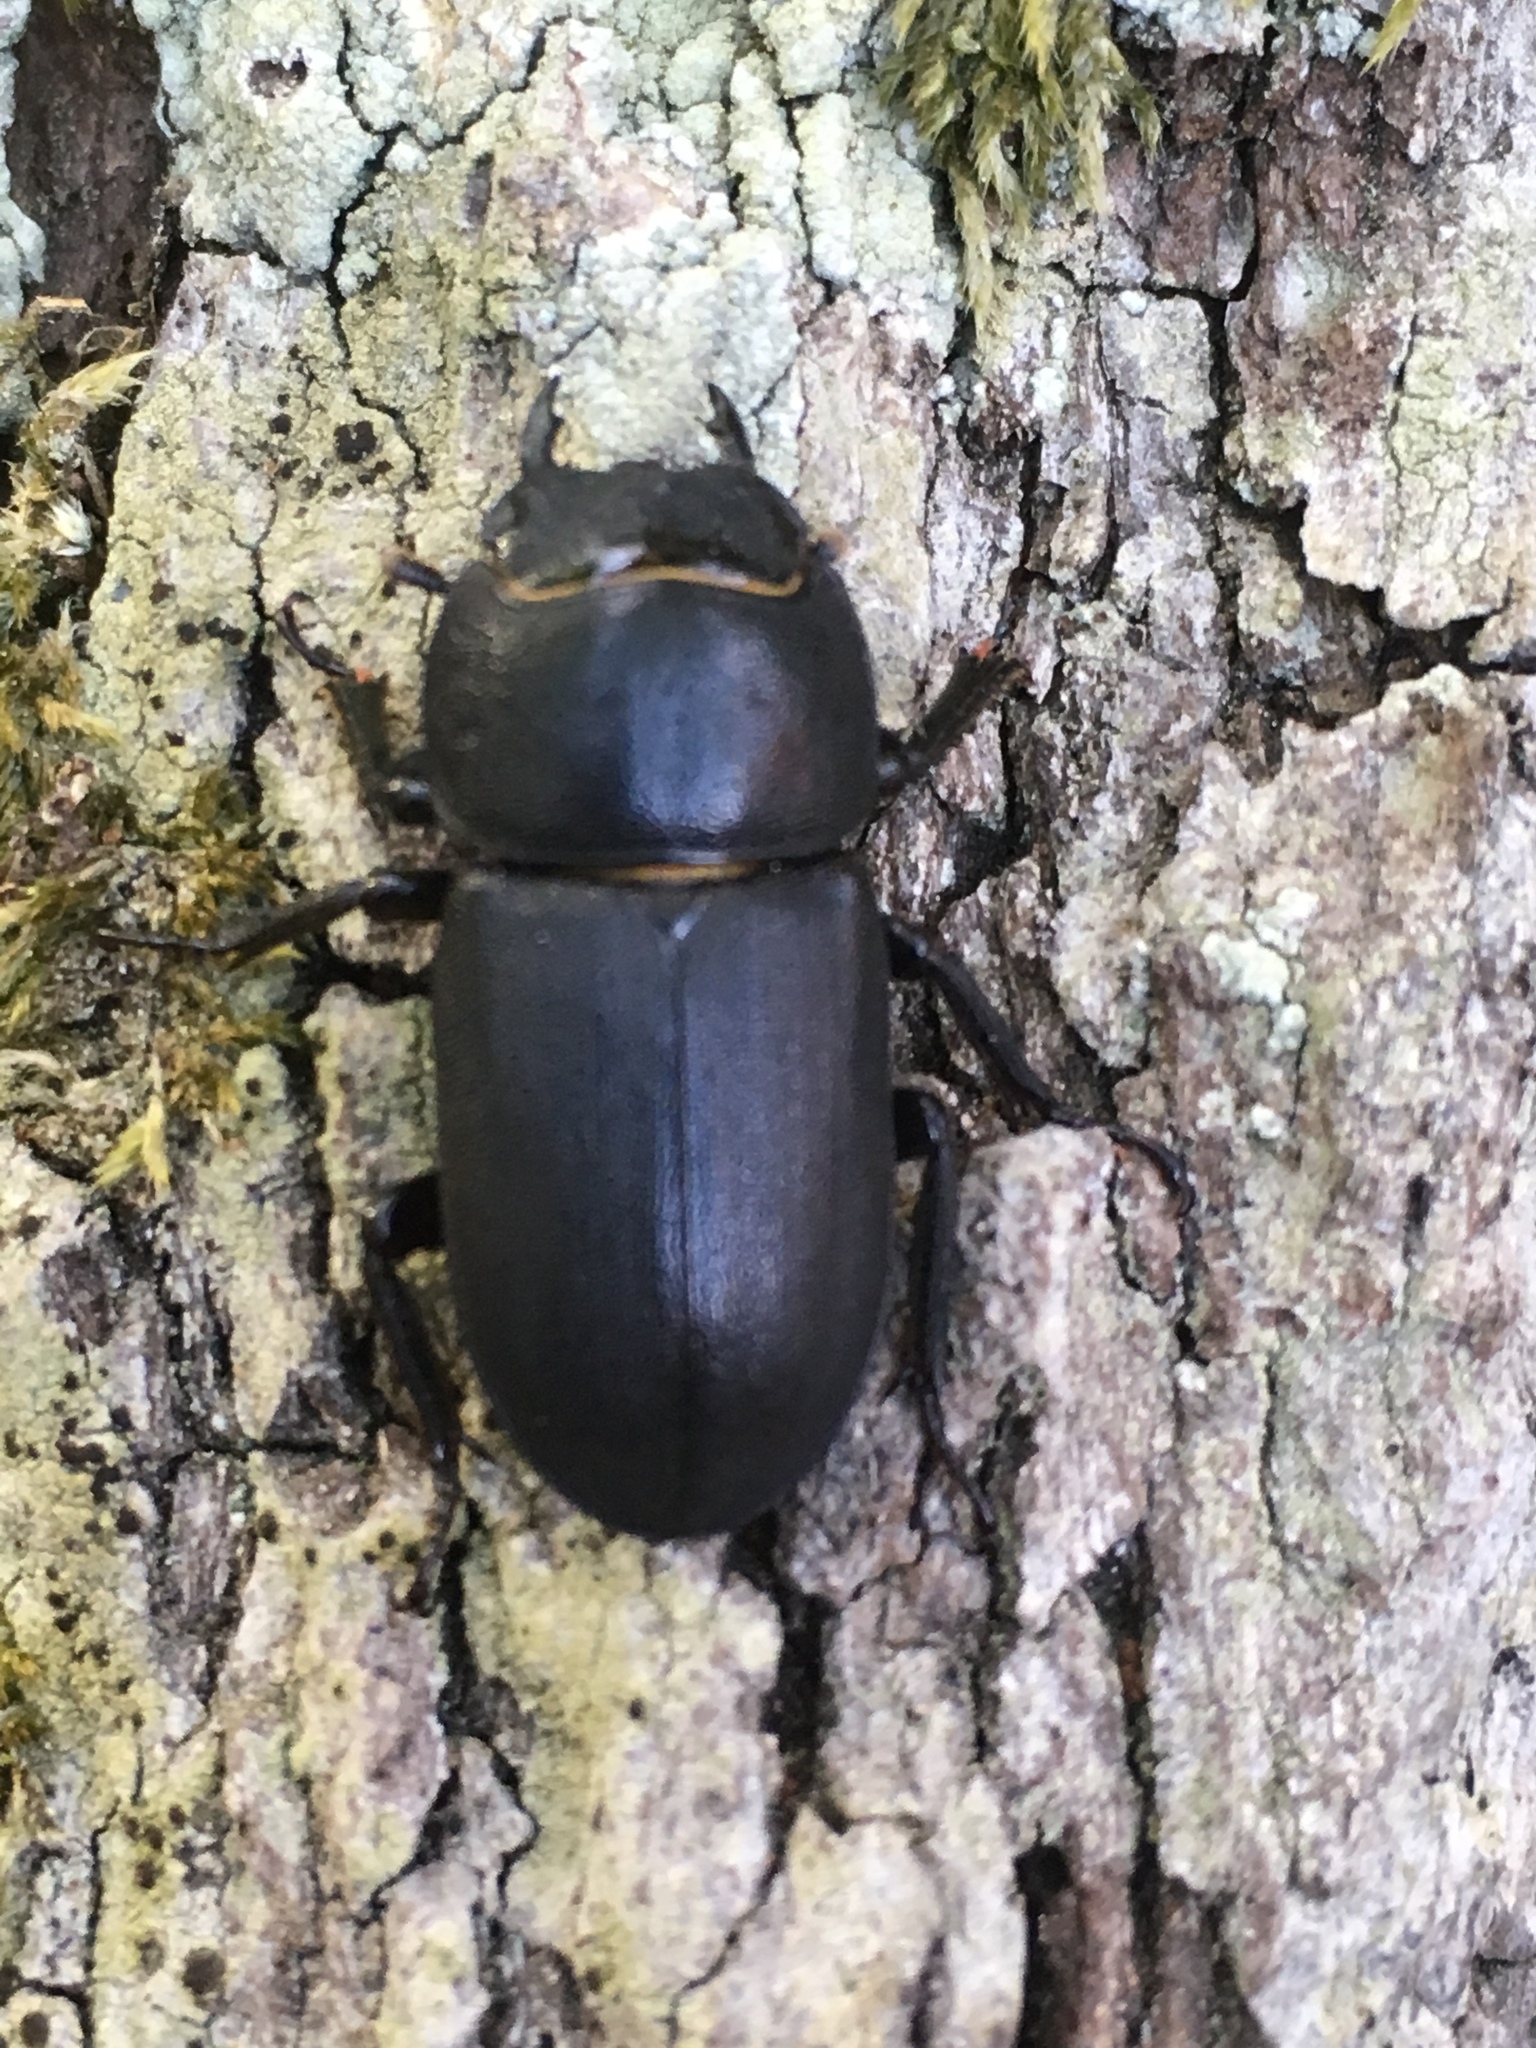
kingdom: Animalia
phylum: Arthropoda
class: Insecta
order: Coleoptera
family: Lucanidae
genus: Dorcus
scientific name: Dorcus parallelipipedus
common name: Lesser stag beetle
